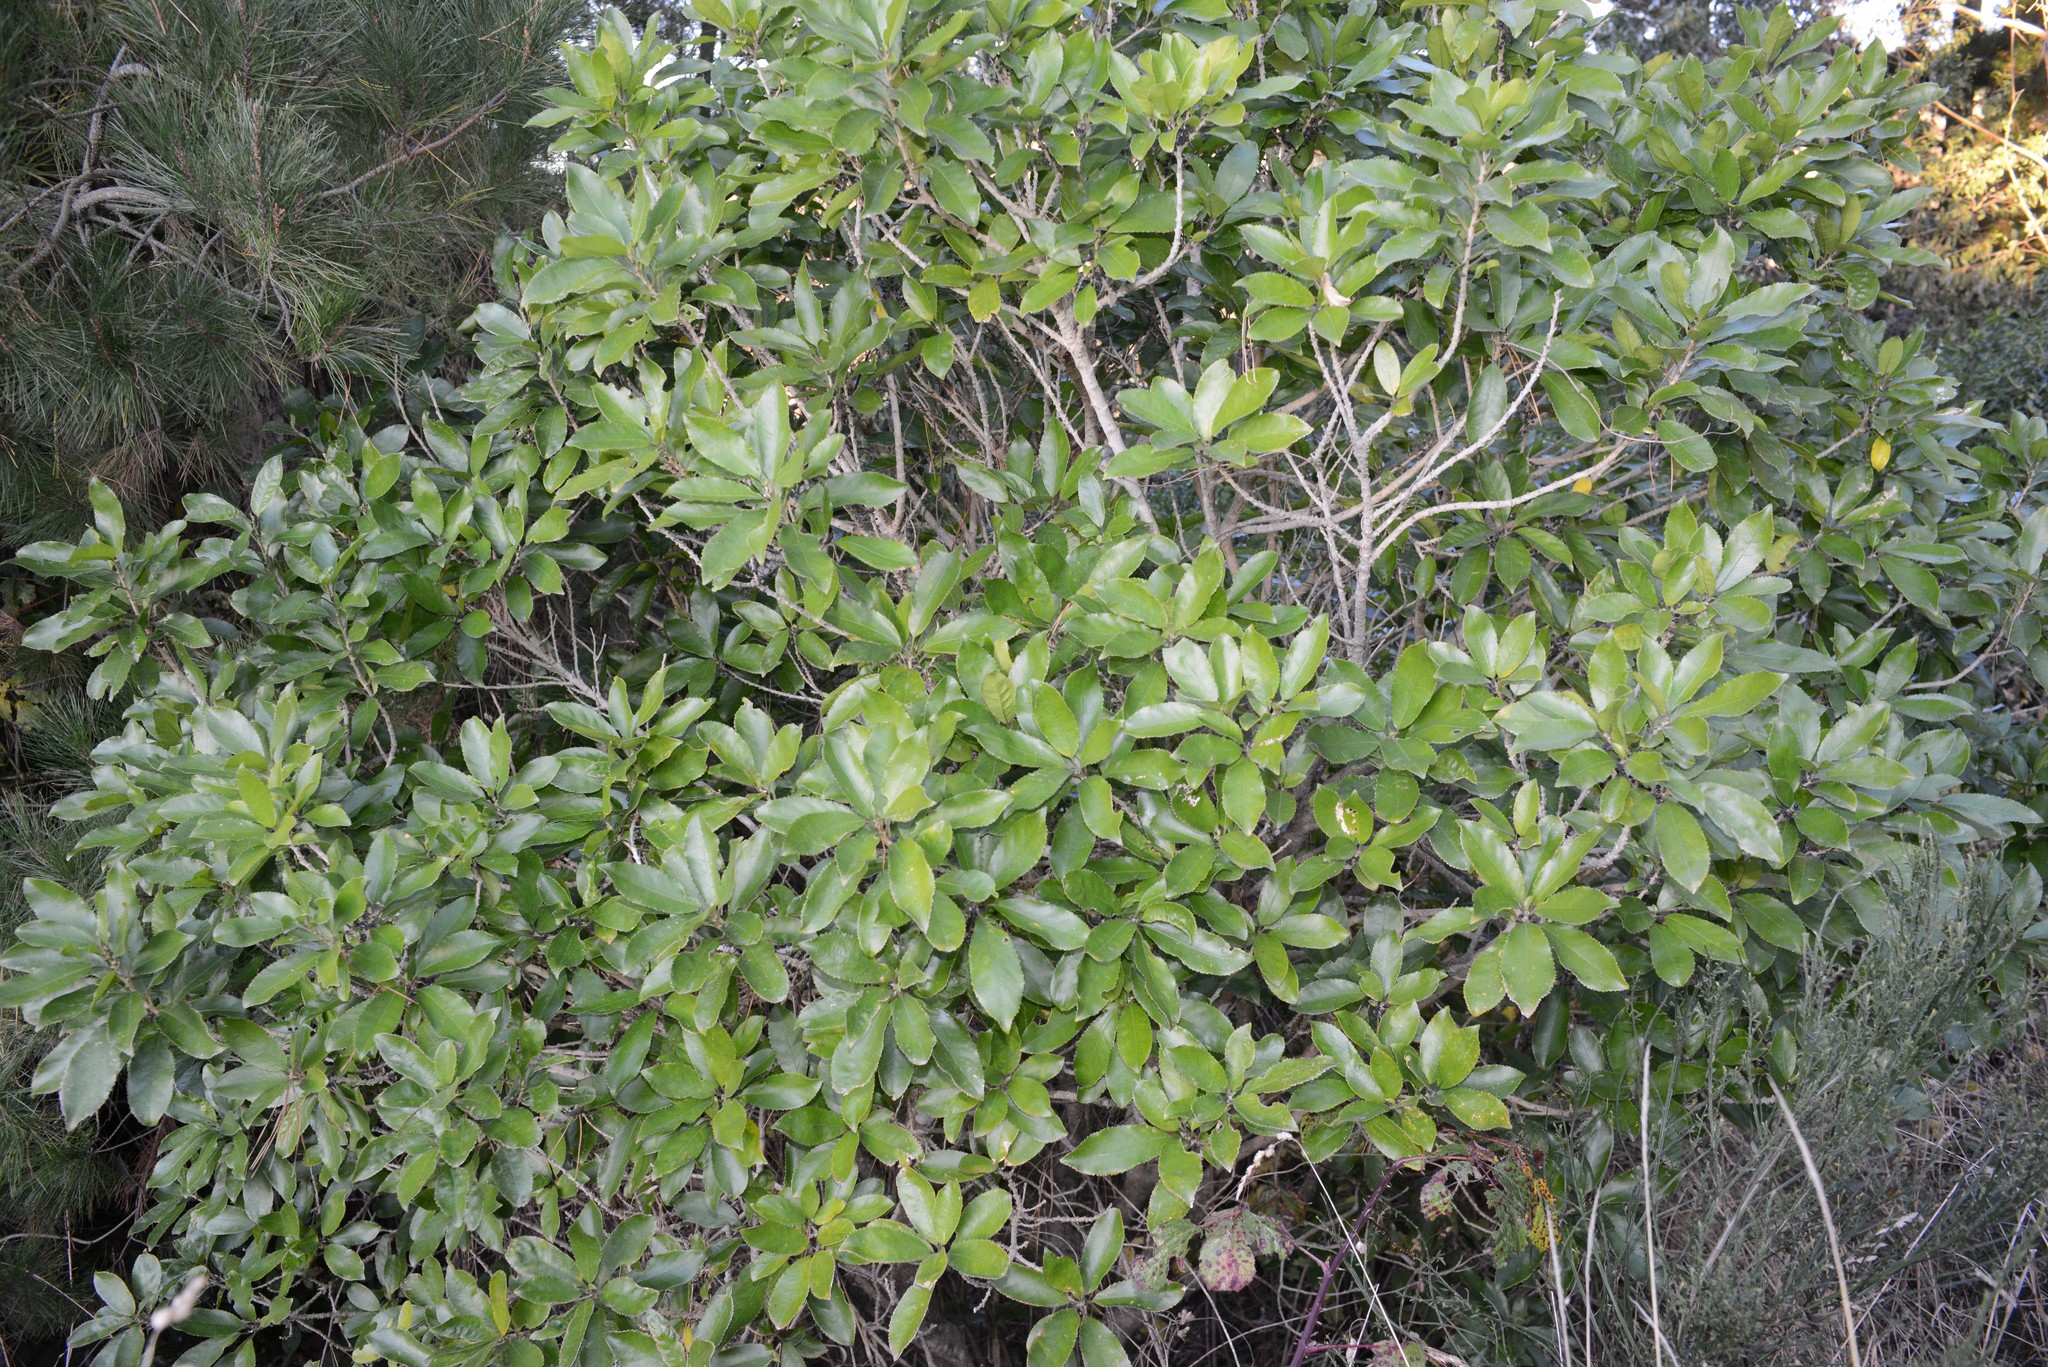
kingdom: Plantae
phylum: Tracheophyta
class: Magnoliopsida
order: Malpighiales
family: Violaceae
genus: Melicytus
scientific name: Melicytus ramiflorus
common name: Mahoe
